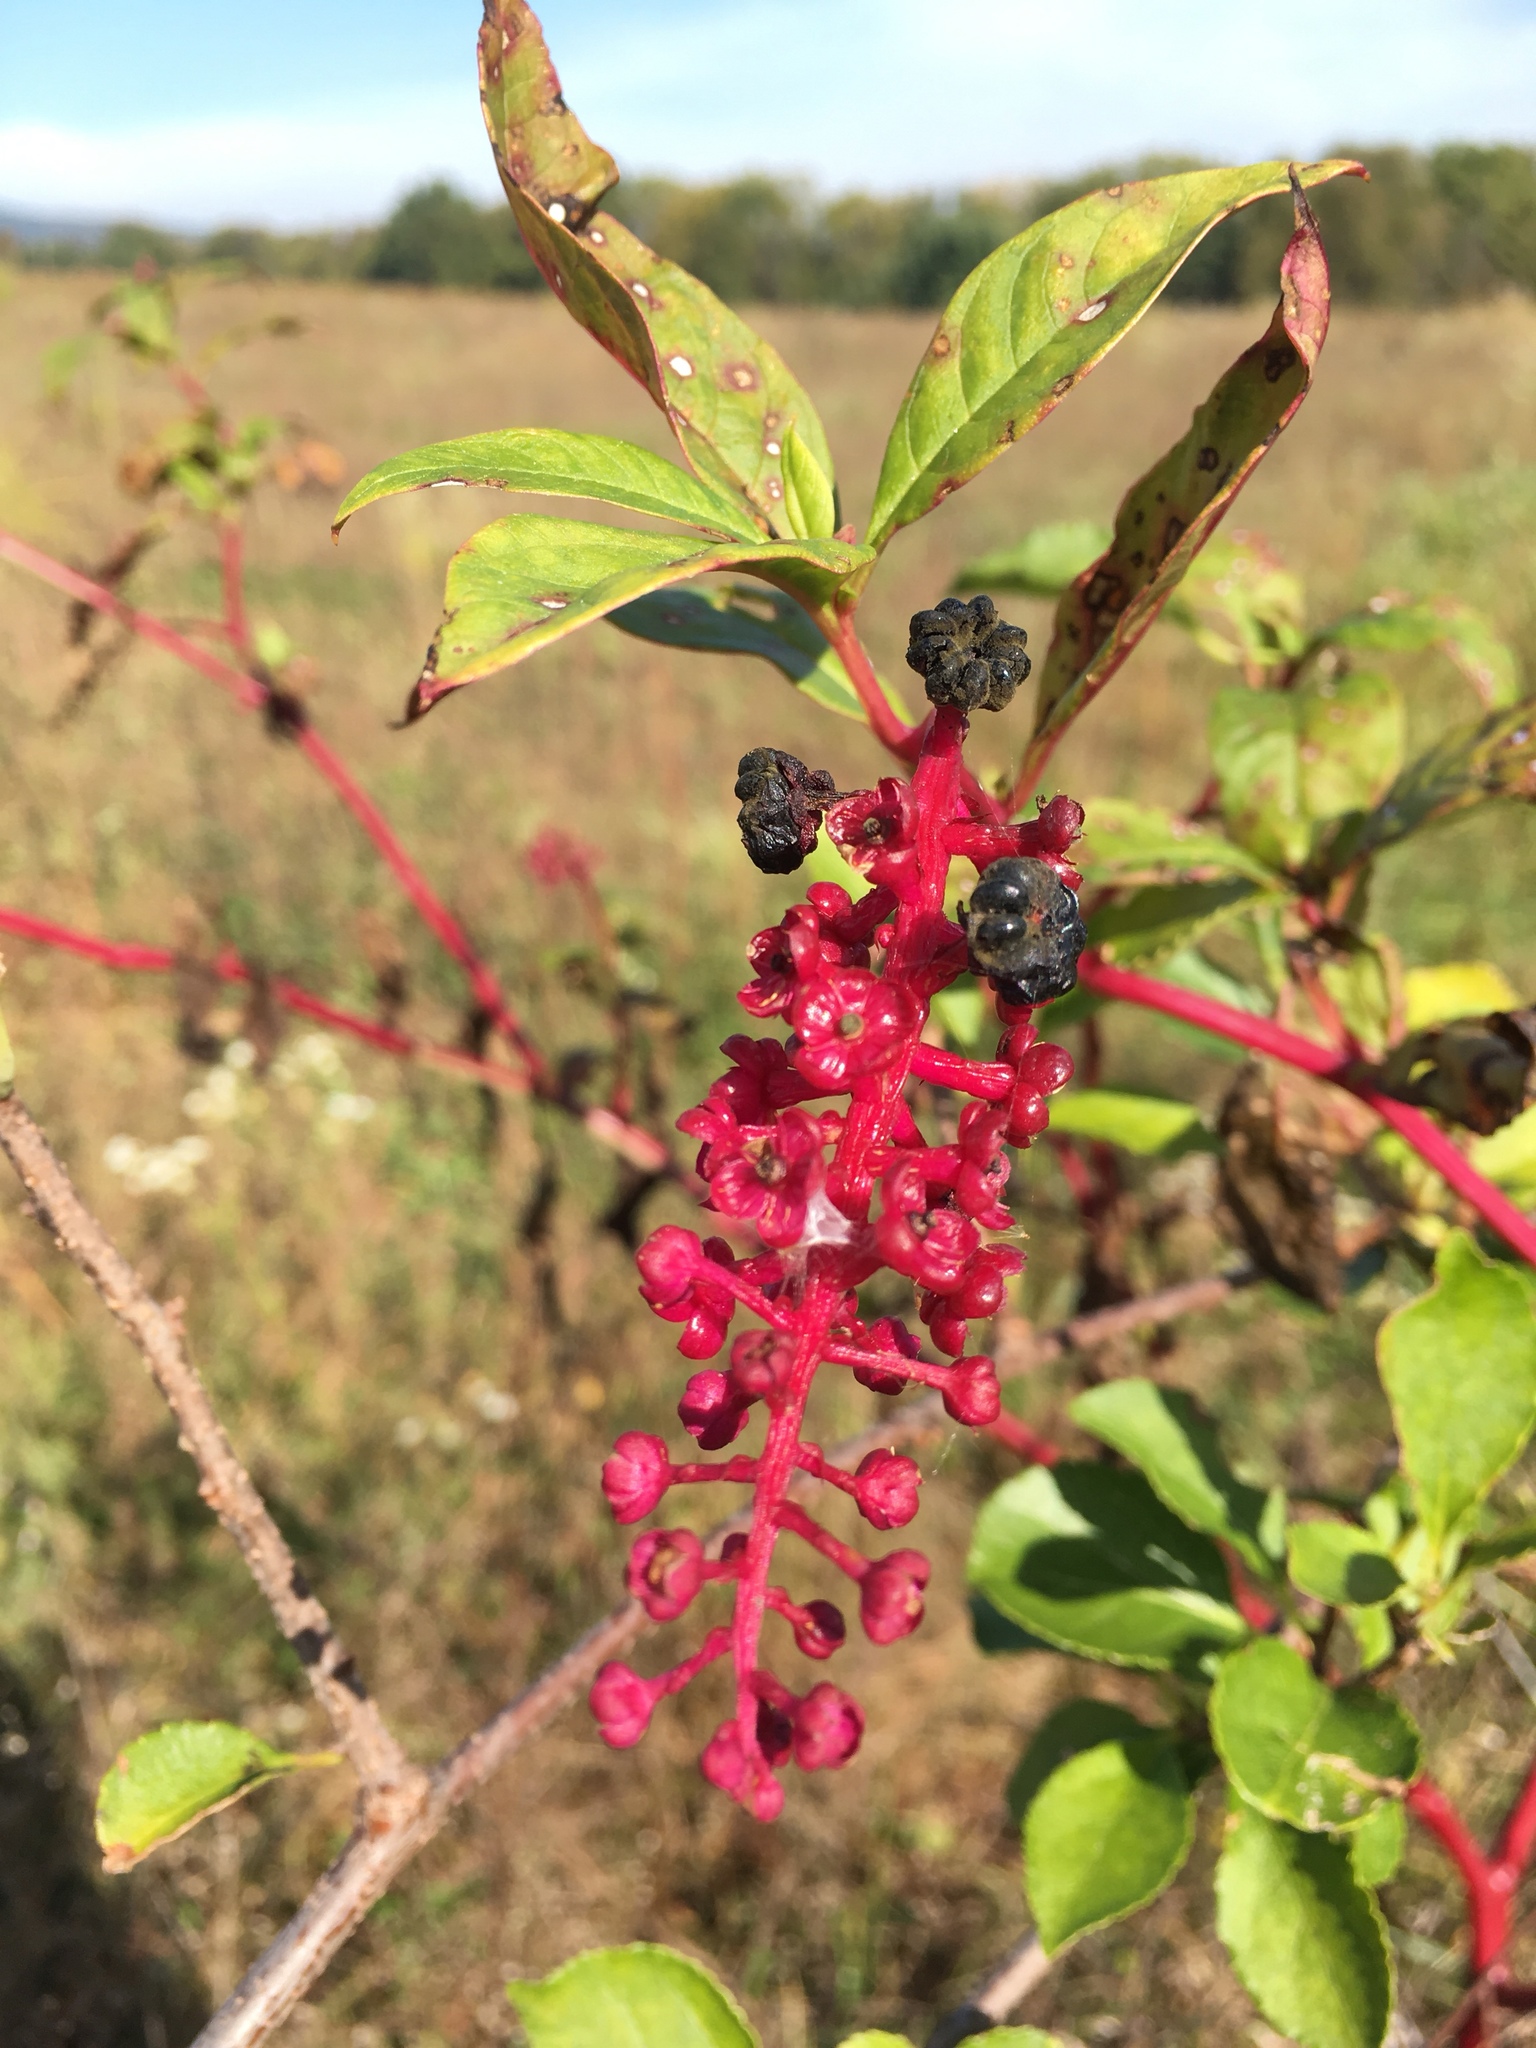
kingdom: Plantae
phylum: Tracheophyta
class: Magnoliopsida
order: Caryophyllales
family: Phytolaccaceae
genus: Phytolacca
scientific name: Phytolacca americana
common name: American pokeweed
